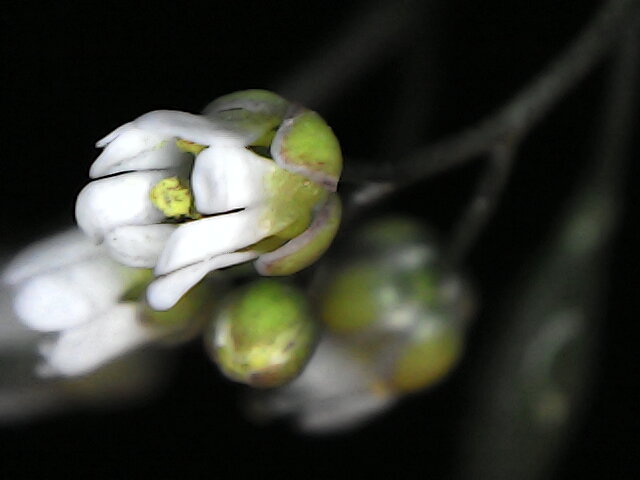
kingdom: Plantae
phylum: Tracheophyta
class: Magnoliopsida
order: Brassicales
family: Brassicaceae
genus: Draba
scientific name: Draba verna
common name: Spring draba
